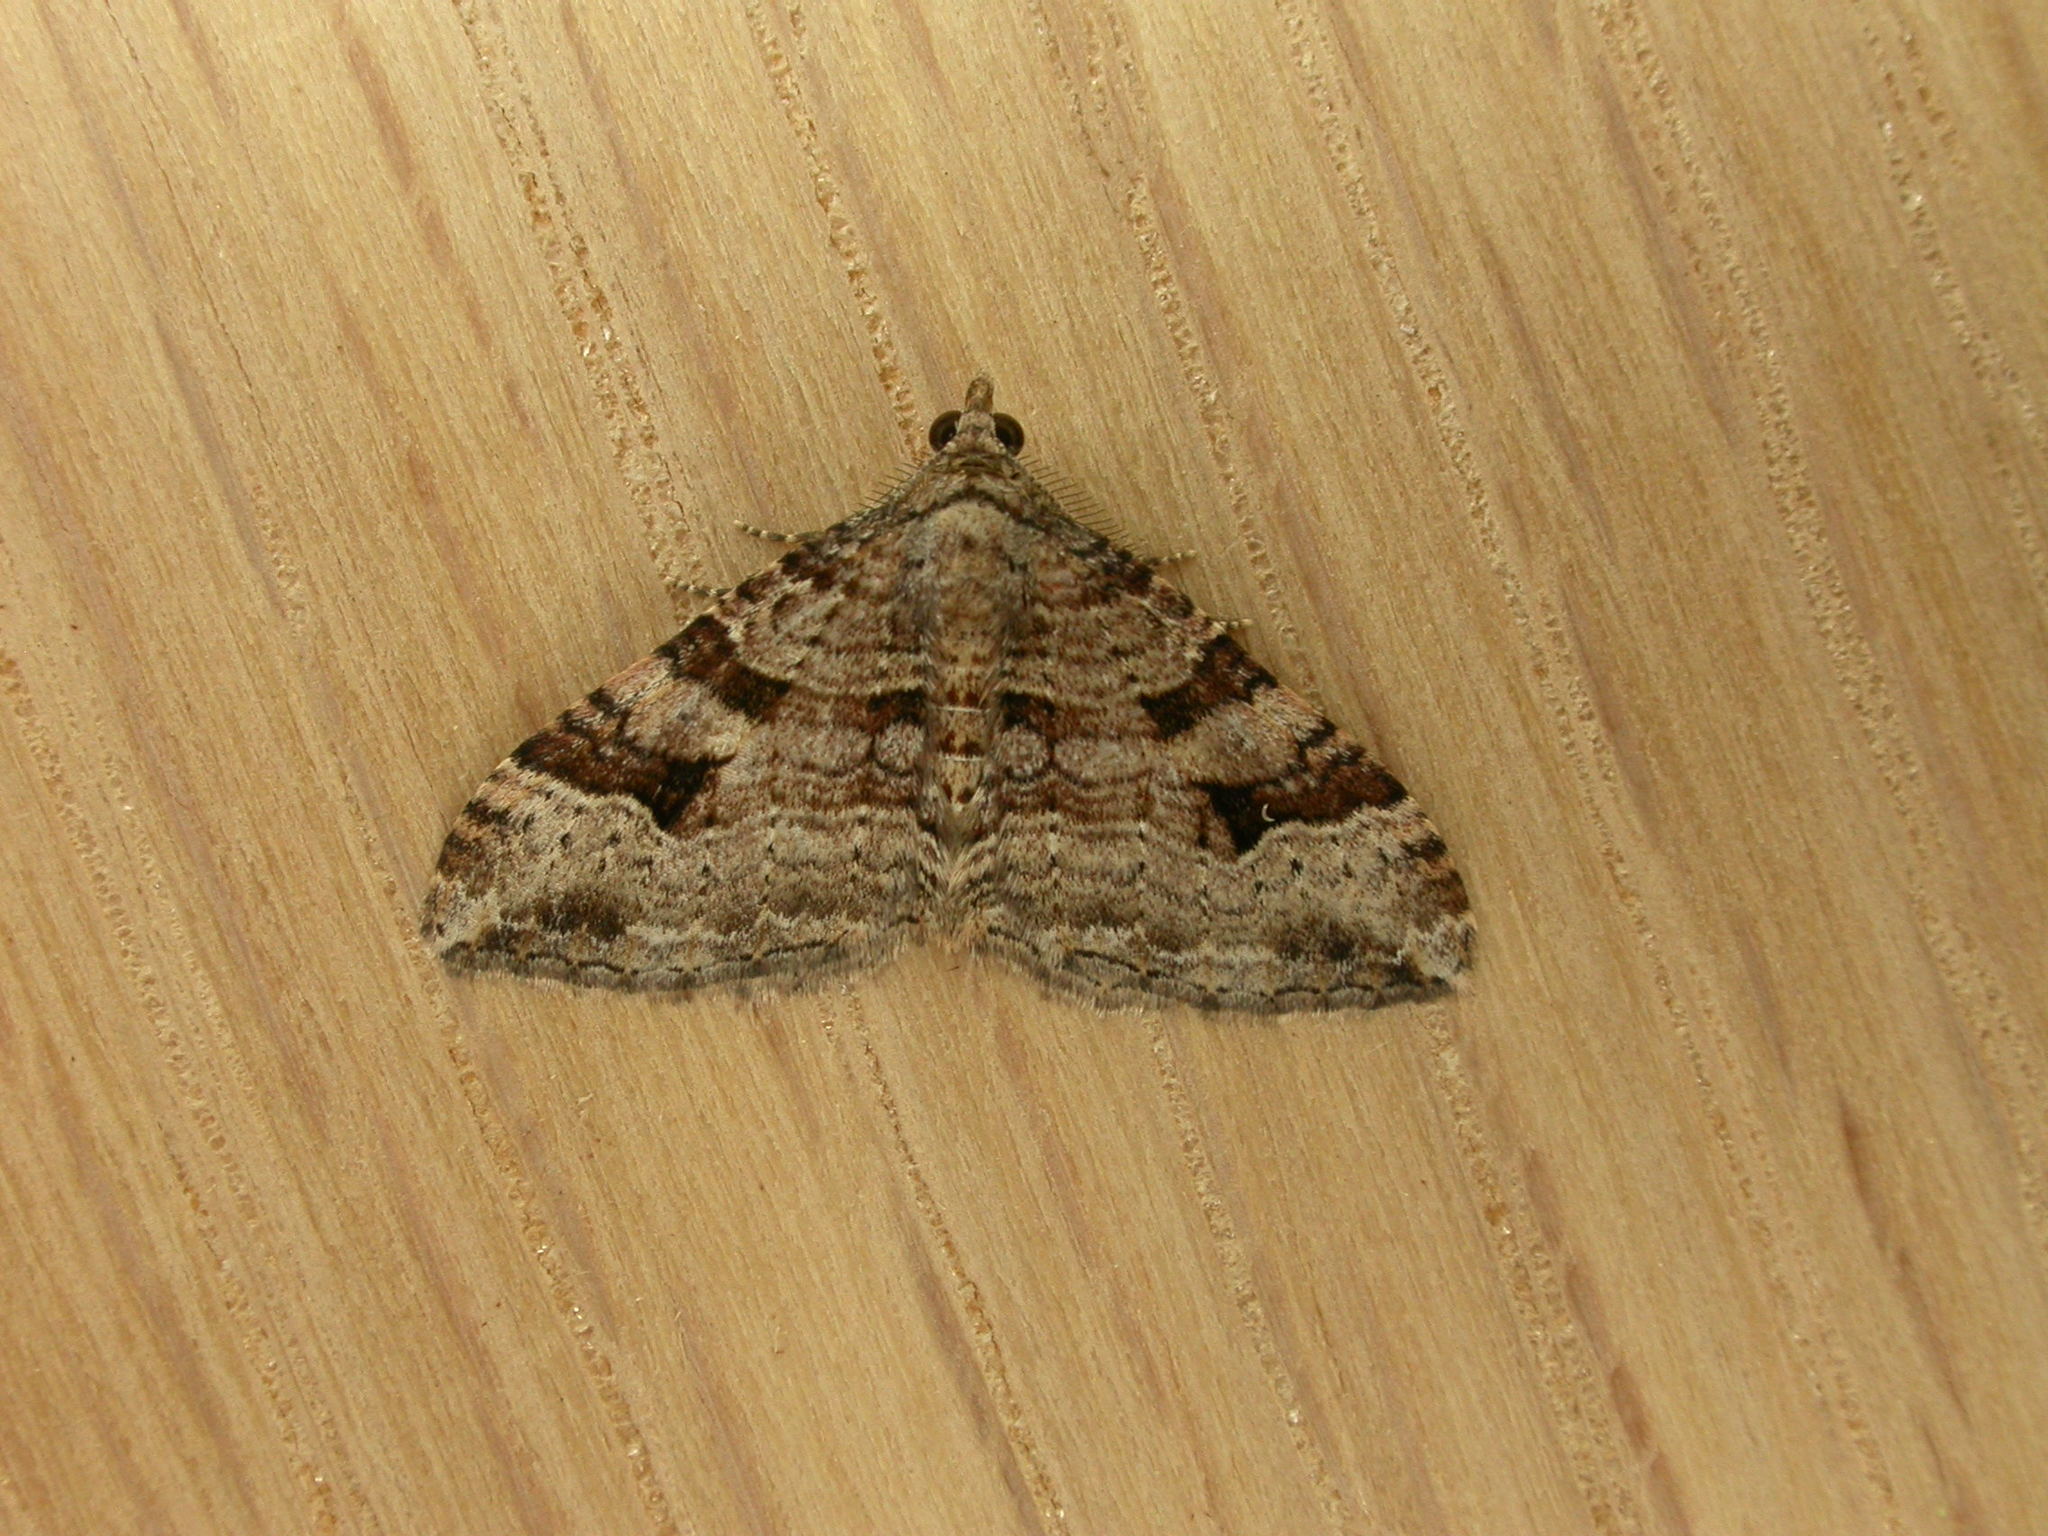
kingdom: Animalia
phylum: Arthropoda
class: Insecta
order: Lepidoptera
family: Geometridae
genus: Epyaxa
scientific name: Epyaxa subidaria
